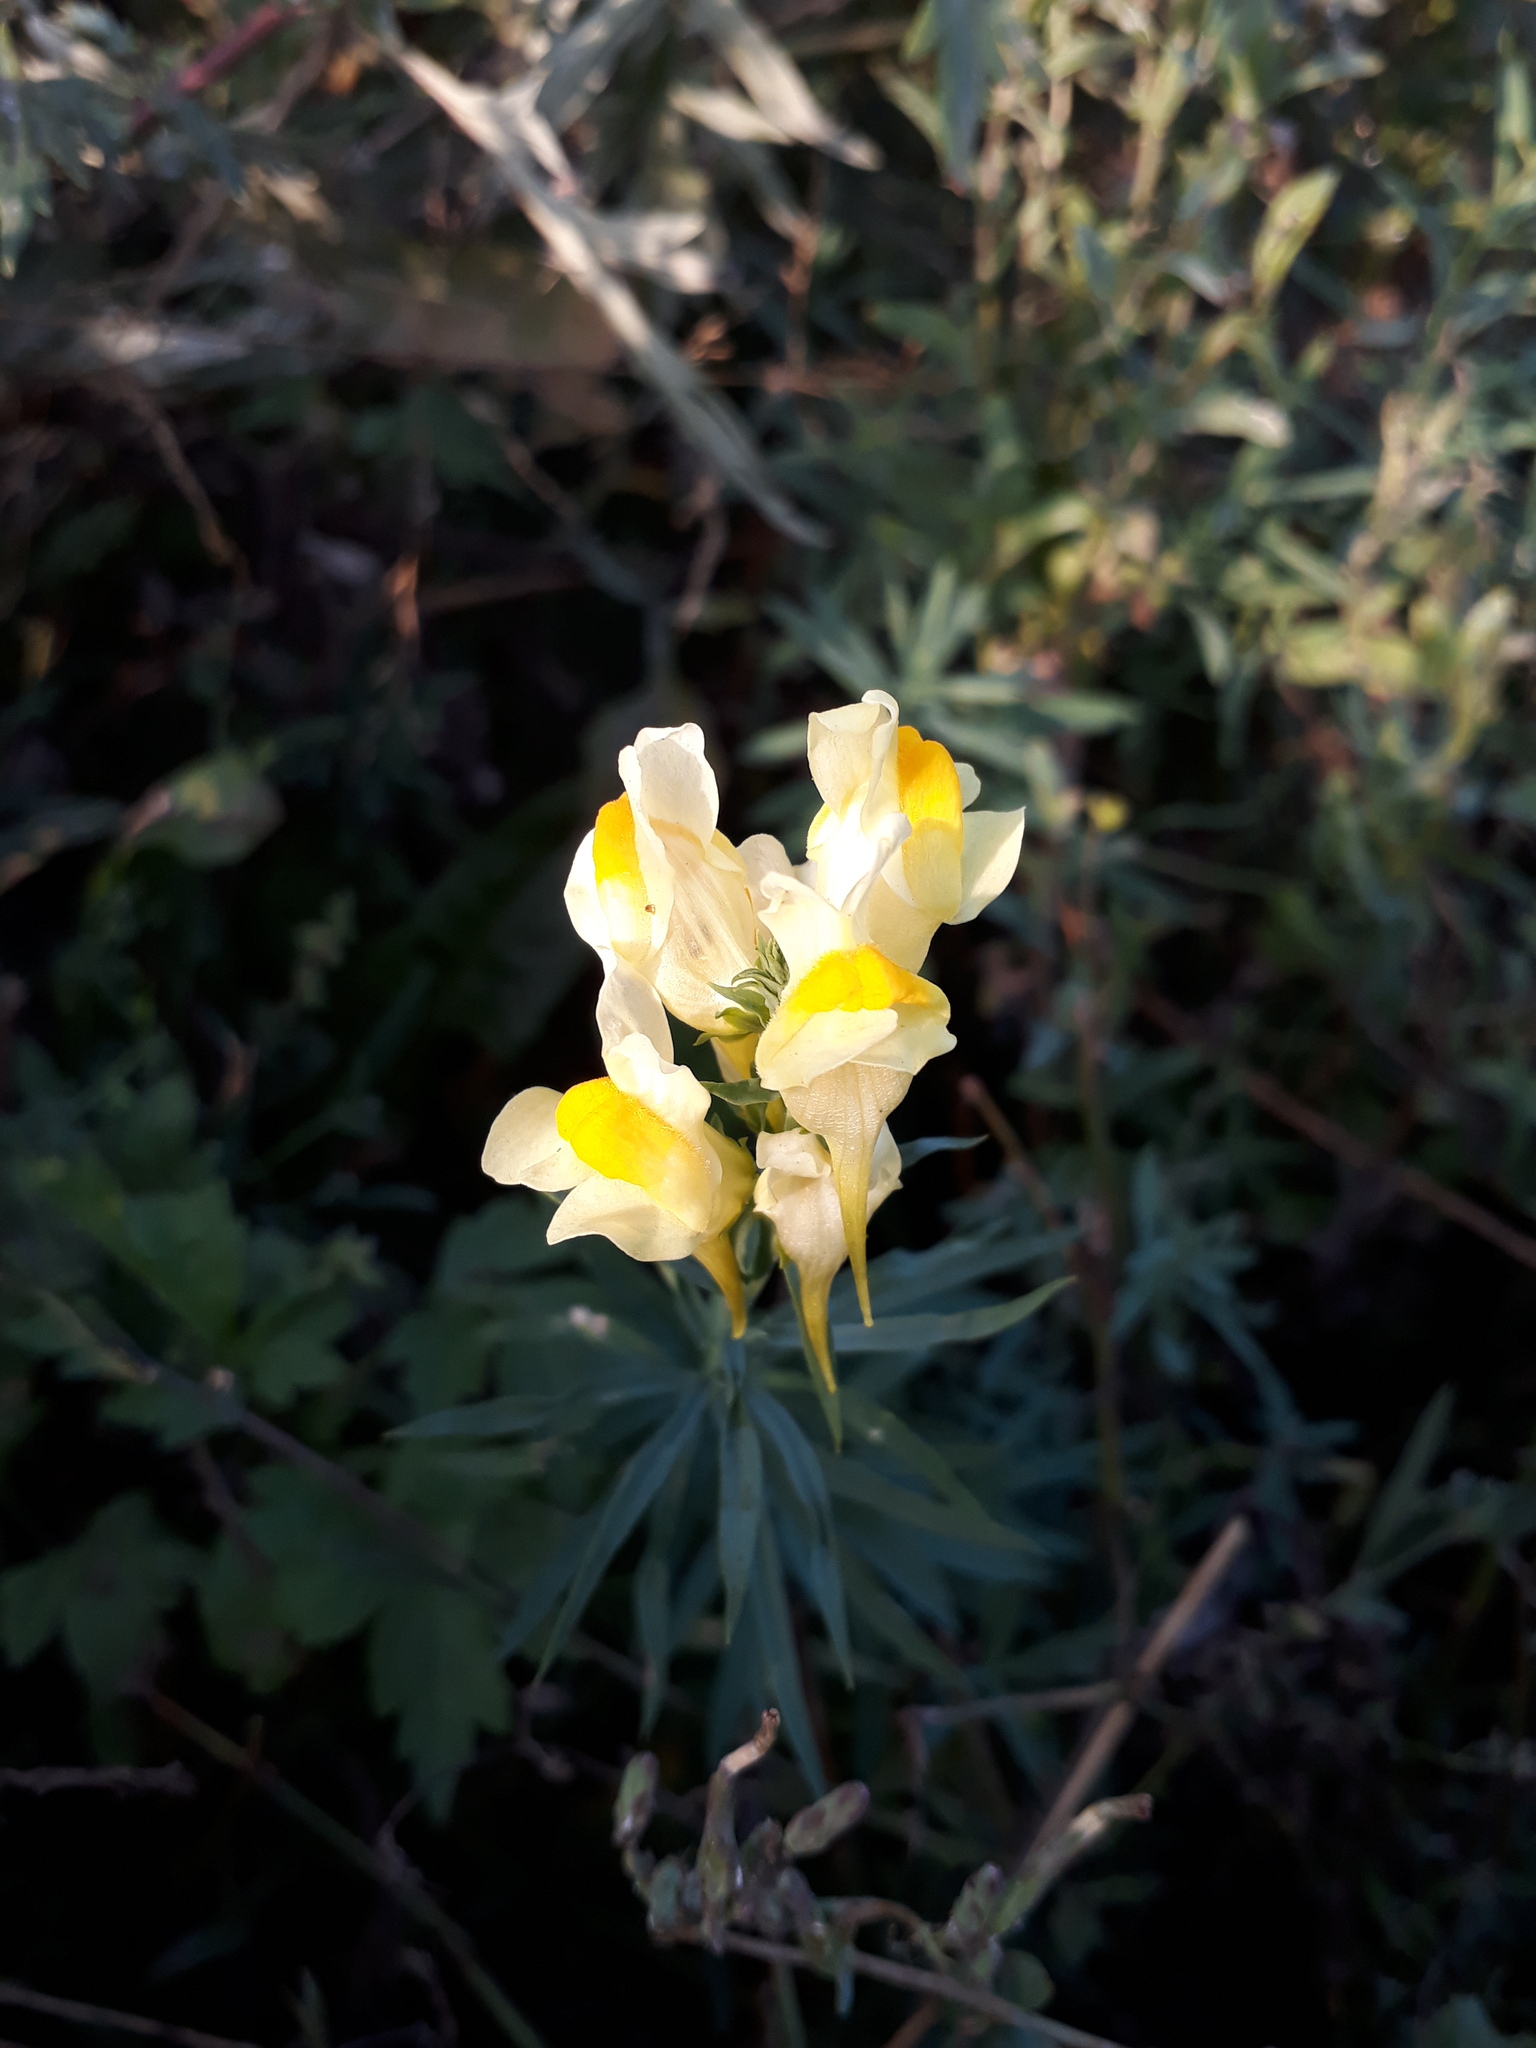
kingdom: Plantae
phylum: Tracheophyta
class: Magnoliopsida
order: Lamiales
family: Plantaginaceae
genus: Linaria
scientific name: Linaria vulgaris
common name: Butter and eggs
